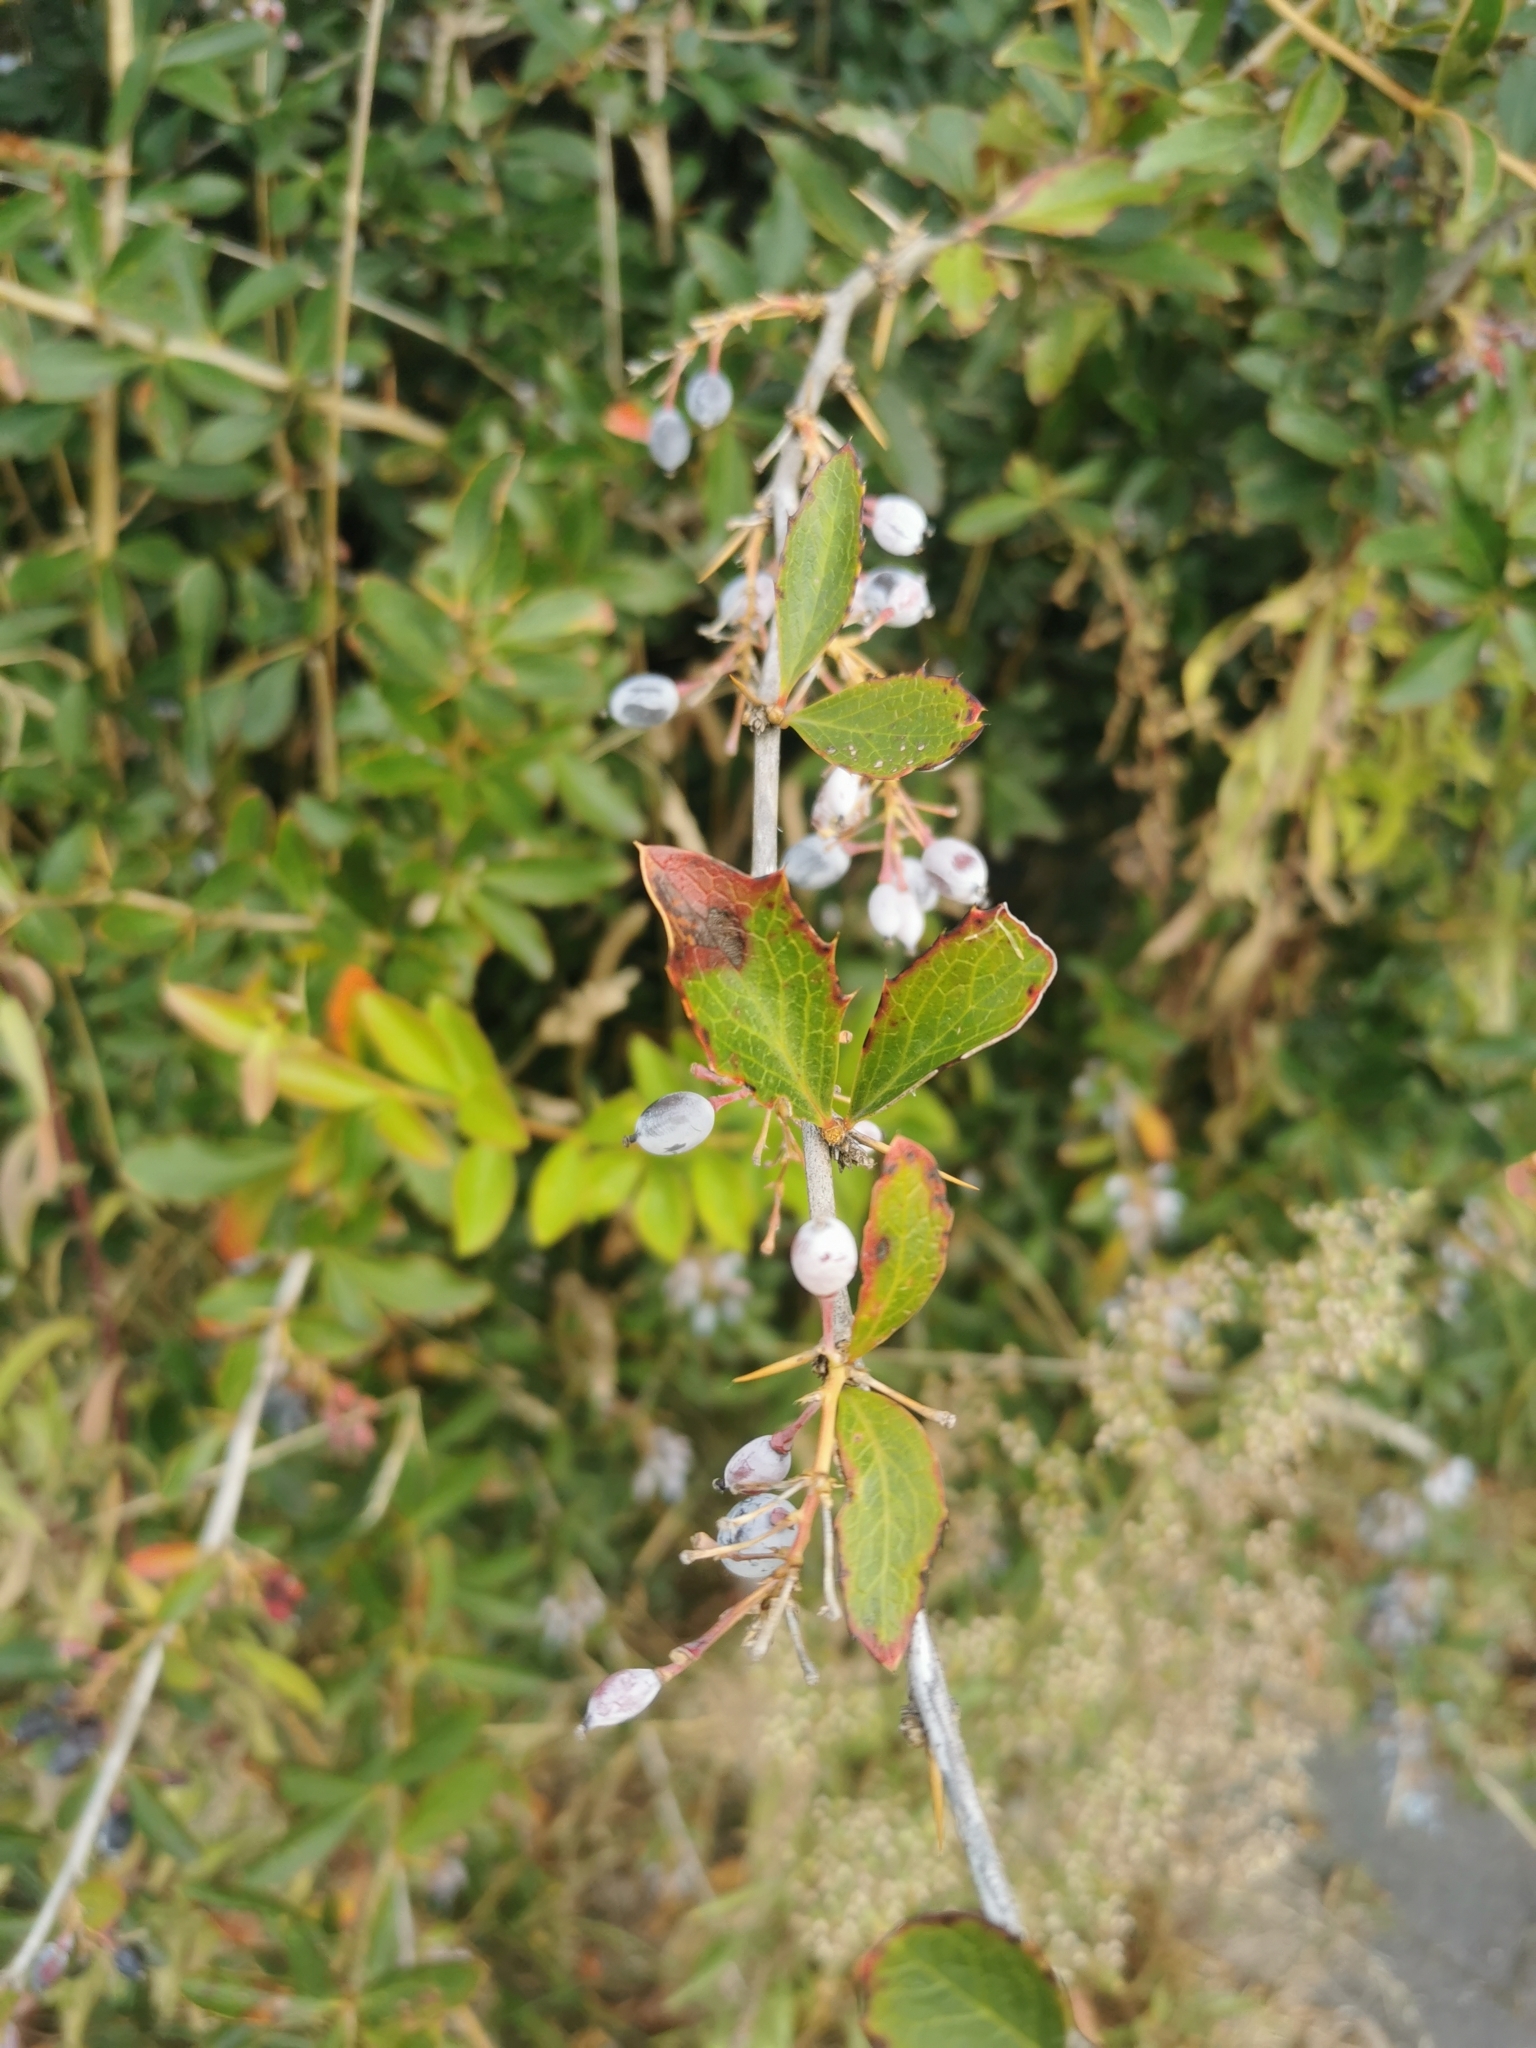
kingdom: Plantae
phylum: Tracheophyta
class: Magnoliopsida
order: Ranunculales
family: Berberidaceae
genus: Berberis
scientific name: Berberis glaucocarpa
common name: Great barberry
